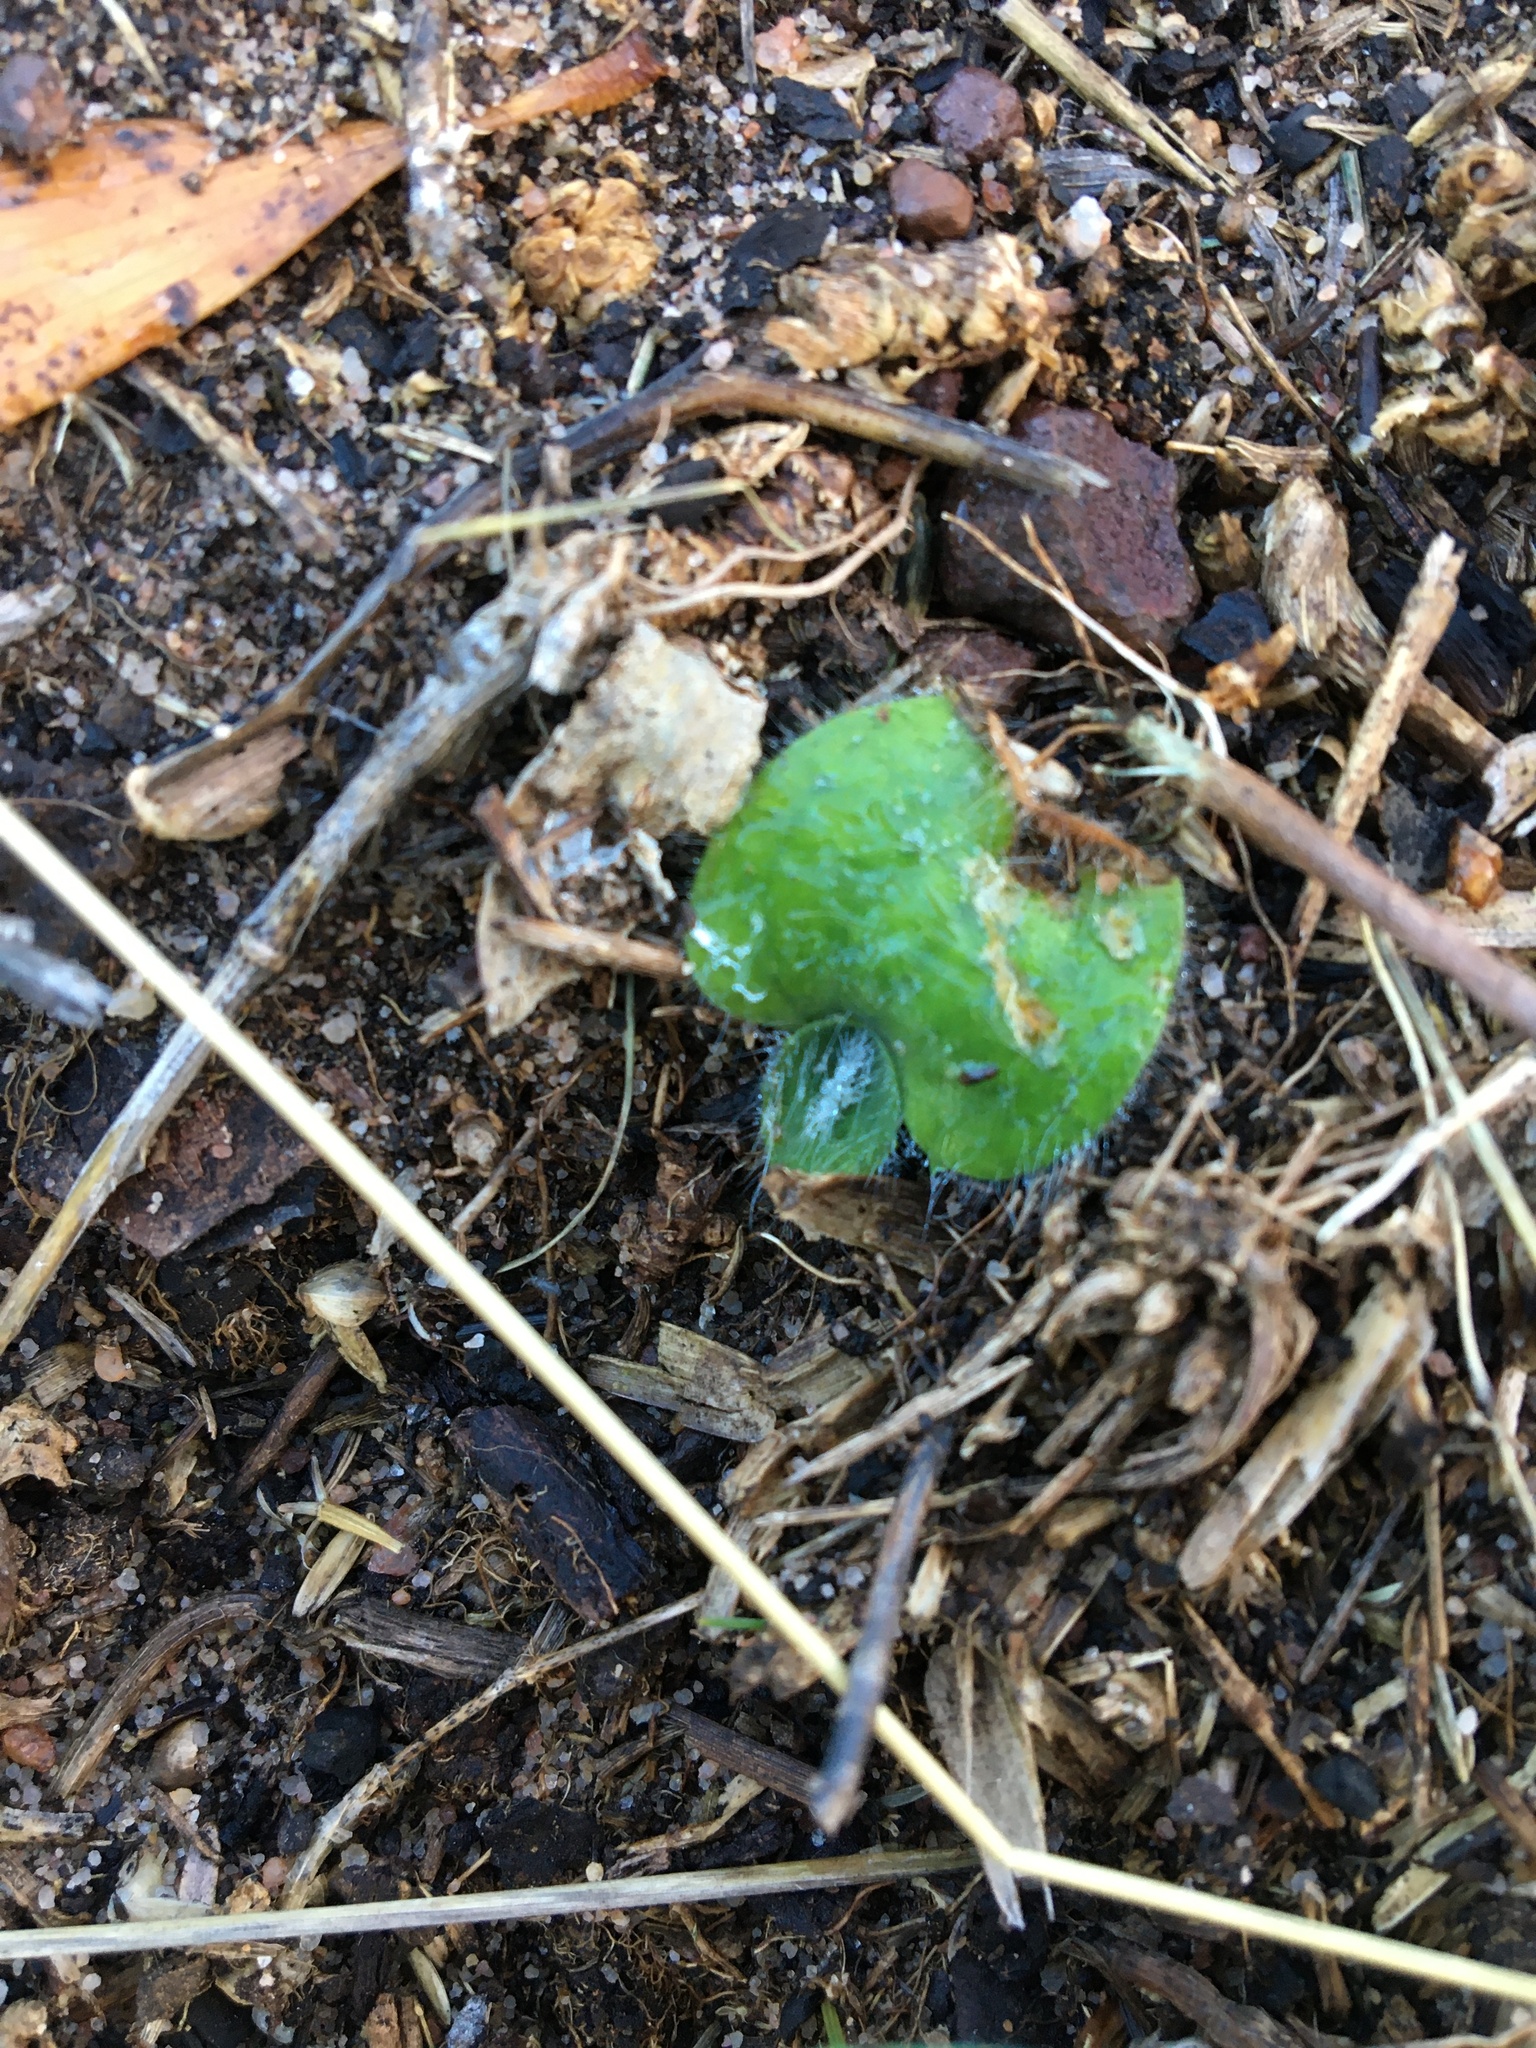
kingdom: Plantae
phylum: Tracheophyta
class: Liliopsida
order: Asparagales
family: Orchidaceae
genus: Holothrix
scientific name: Holothrix villosa
